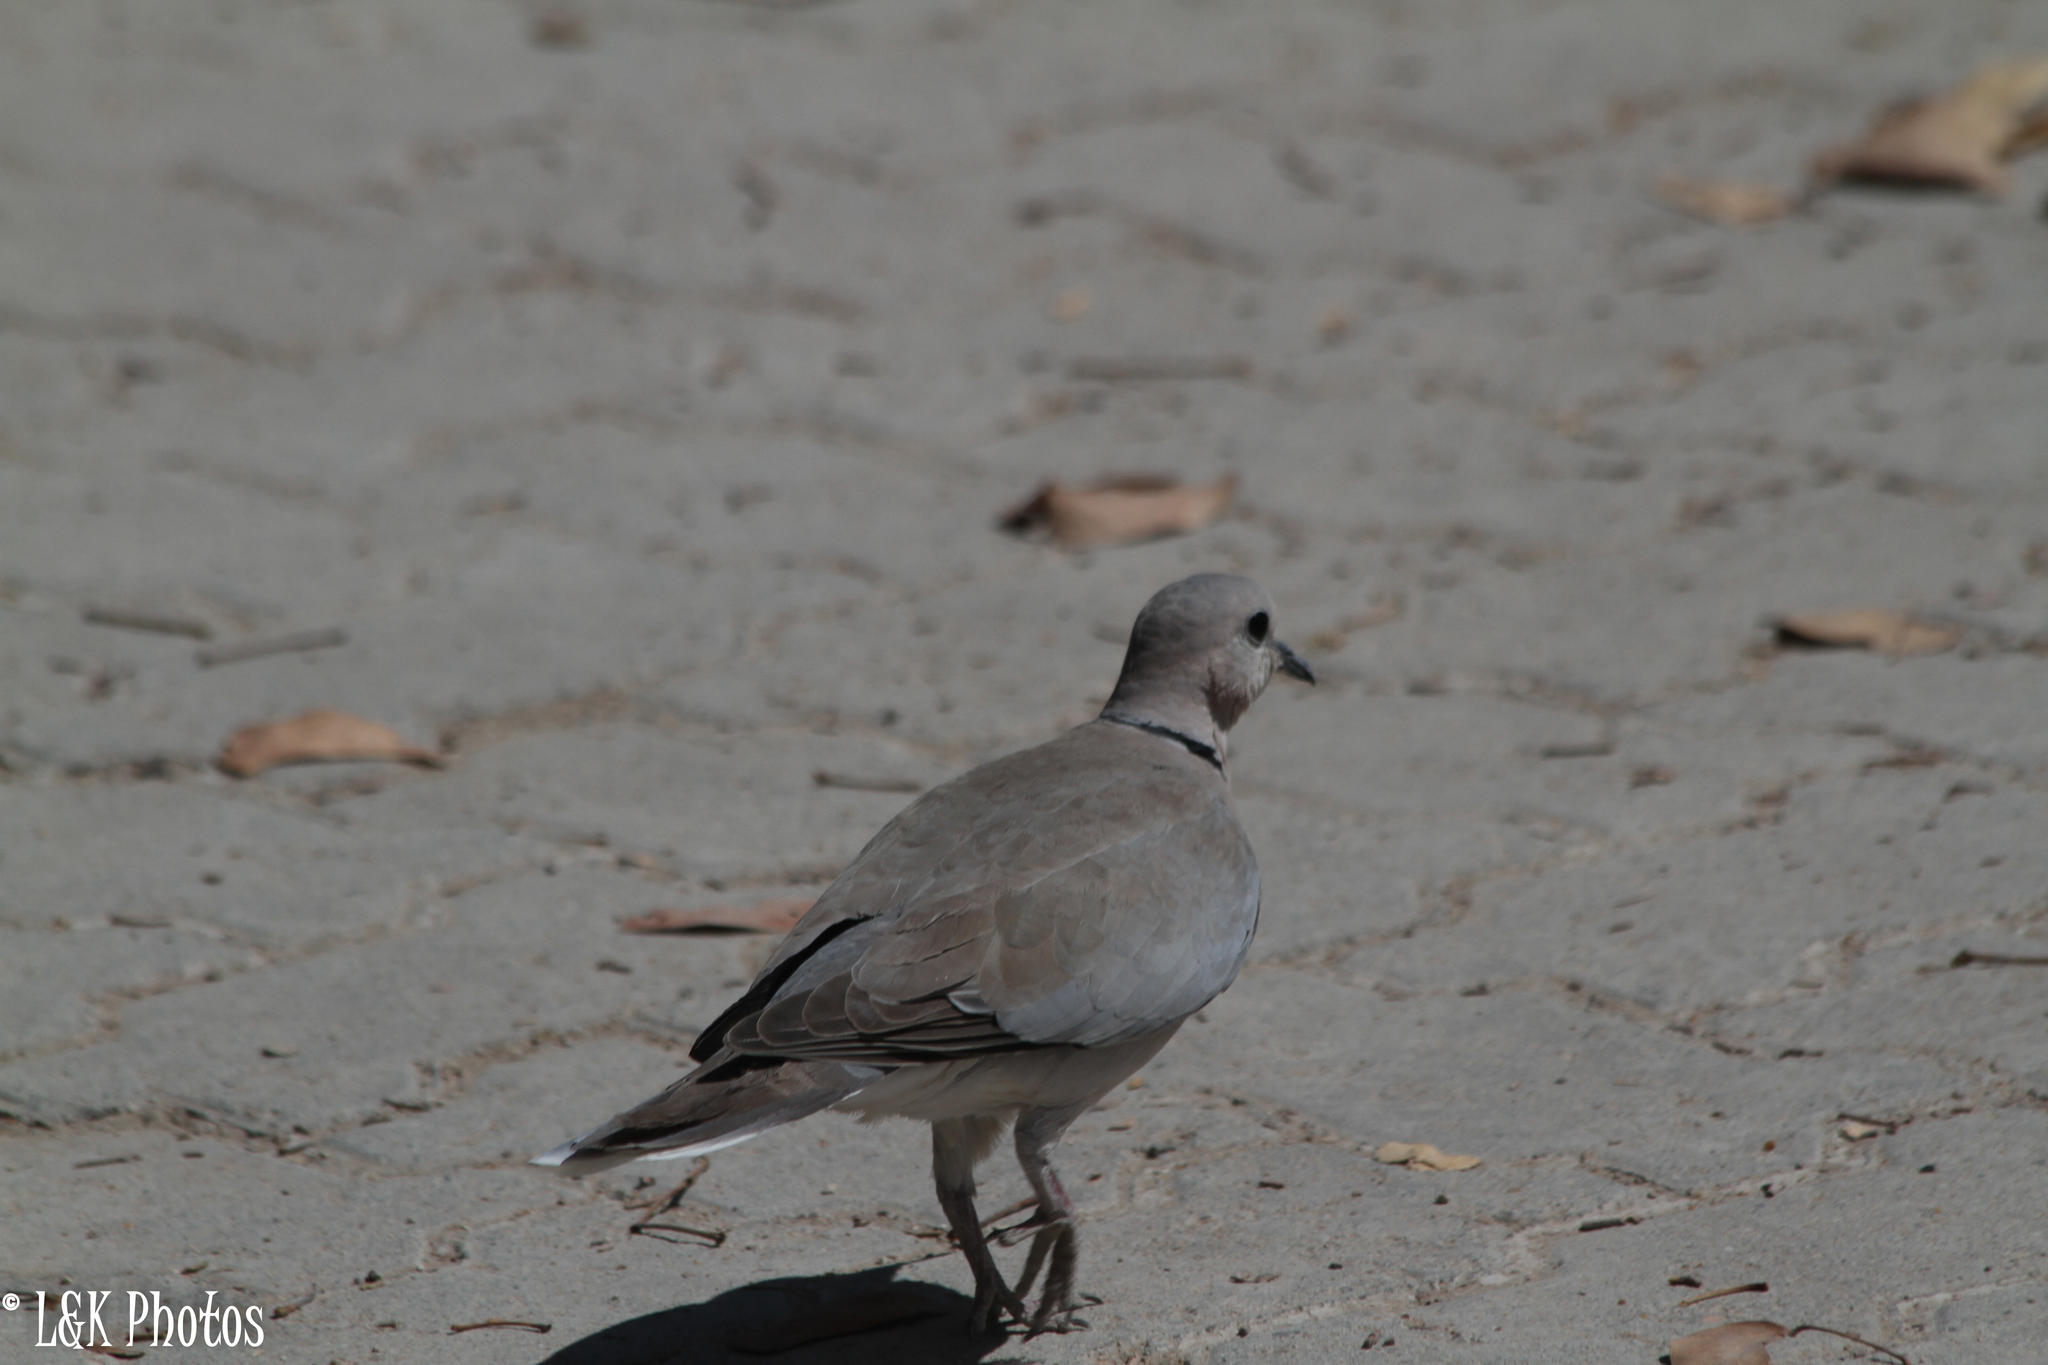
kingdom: Animalia
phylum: Chordata
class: Aves
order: Columbiformes
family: Columbidae
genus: Streptopelia
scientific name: Streptopelia capicola
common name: Ring-necked dove
